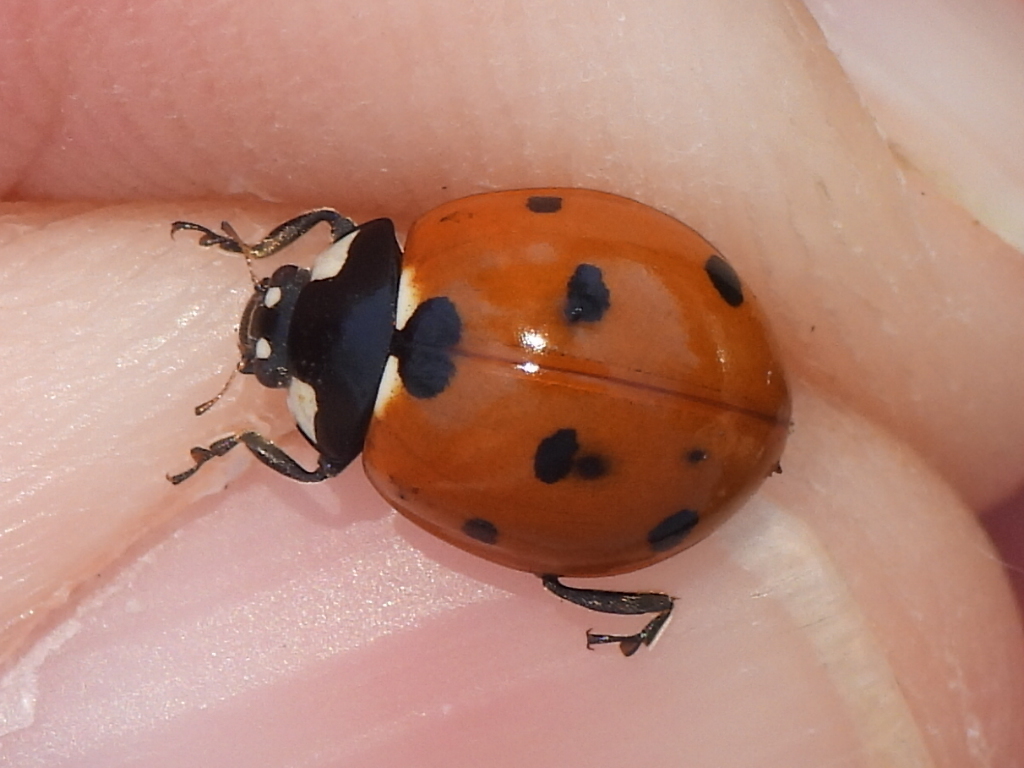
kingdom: Animalia
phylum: Arthropoda
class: Insecta
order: Coleoptera
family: Coccinellidae
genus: Coccinella
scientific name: Coccinella septempunctata
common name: Sevenspotted lady beetle
